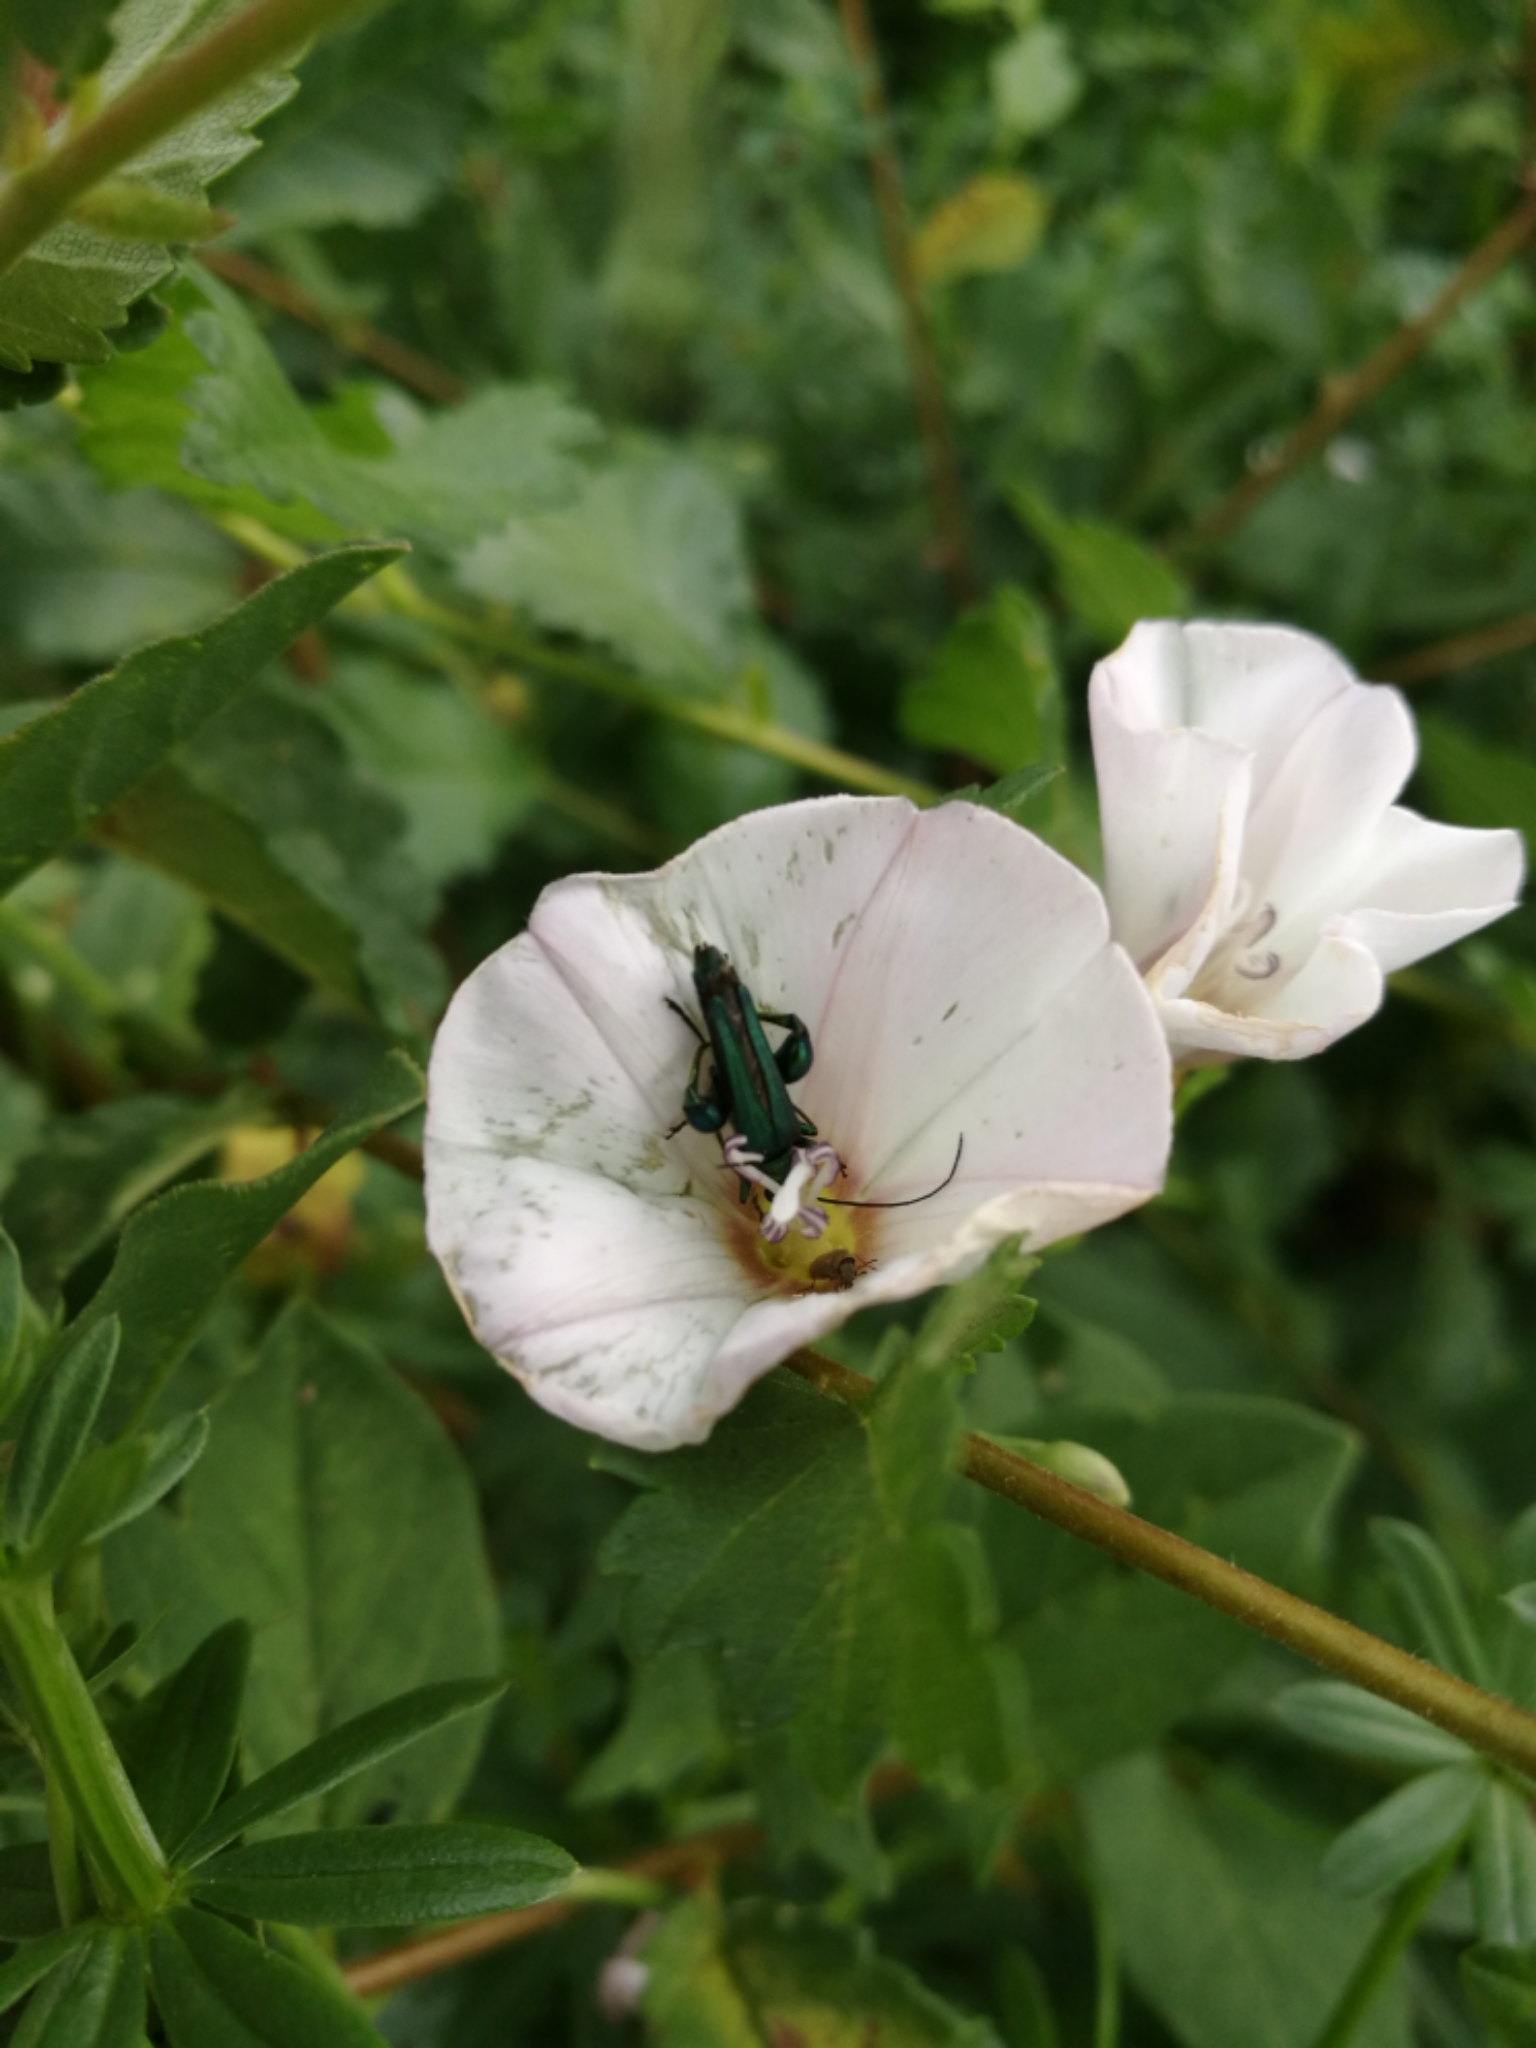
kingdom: Plantae
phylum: Tracheophyta
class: Magnoliopsida
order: Solanales
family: Convolvulaceae
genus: Convolvulus
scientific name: Convolvulus arvensis
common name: Field bindweed
